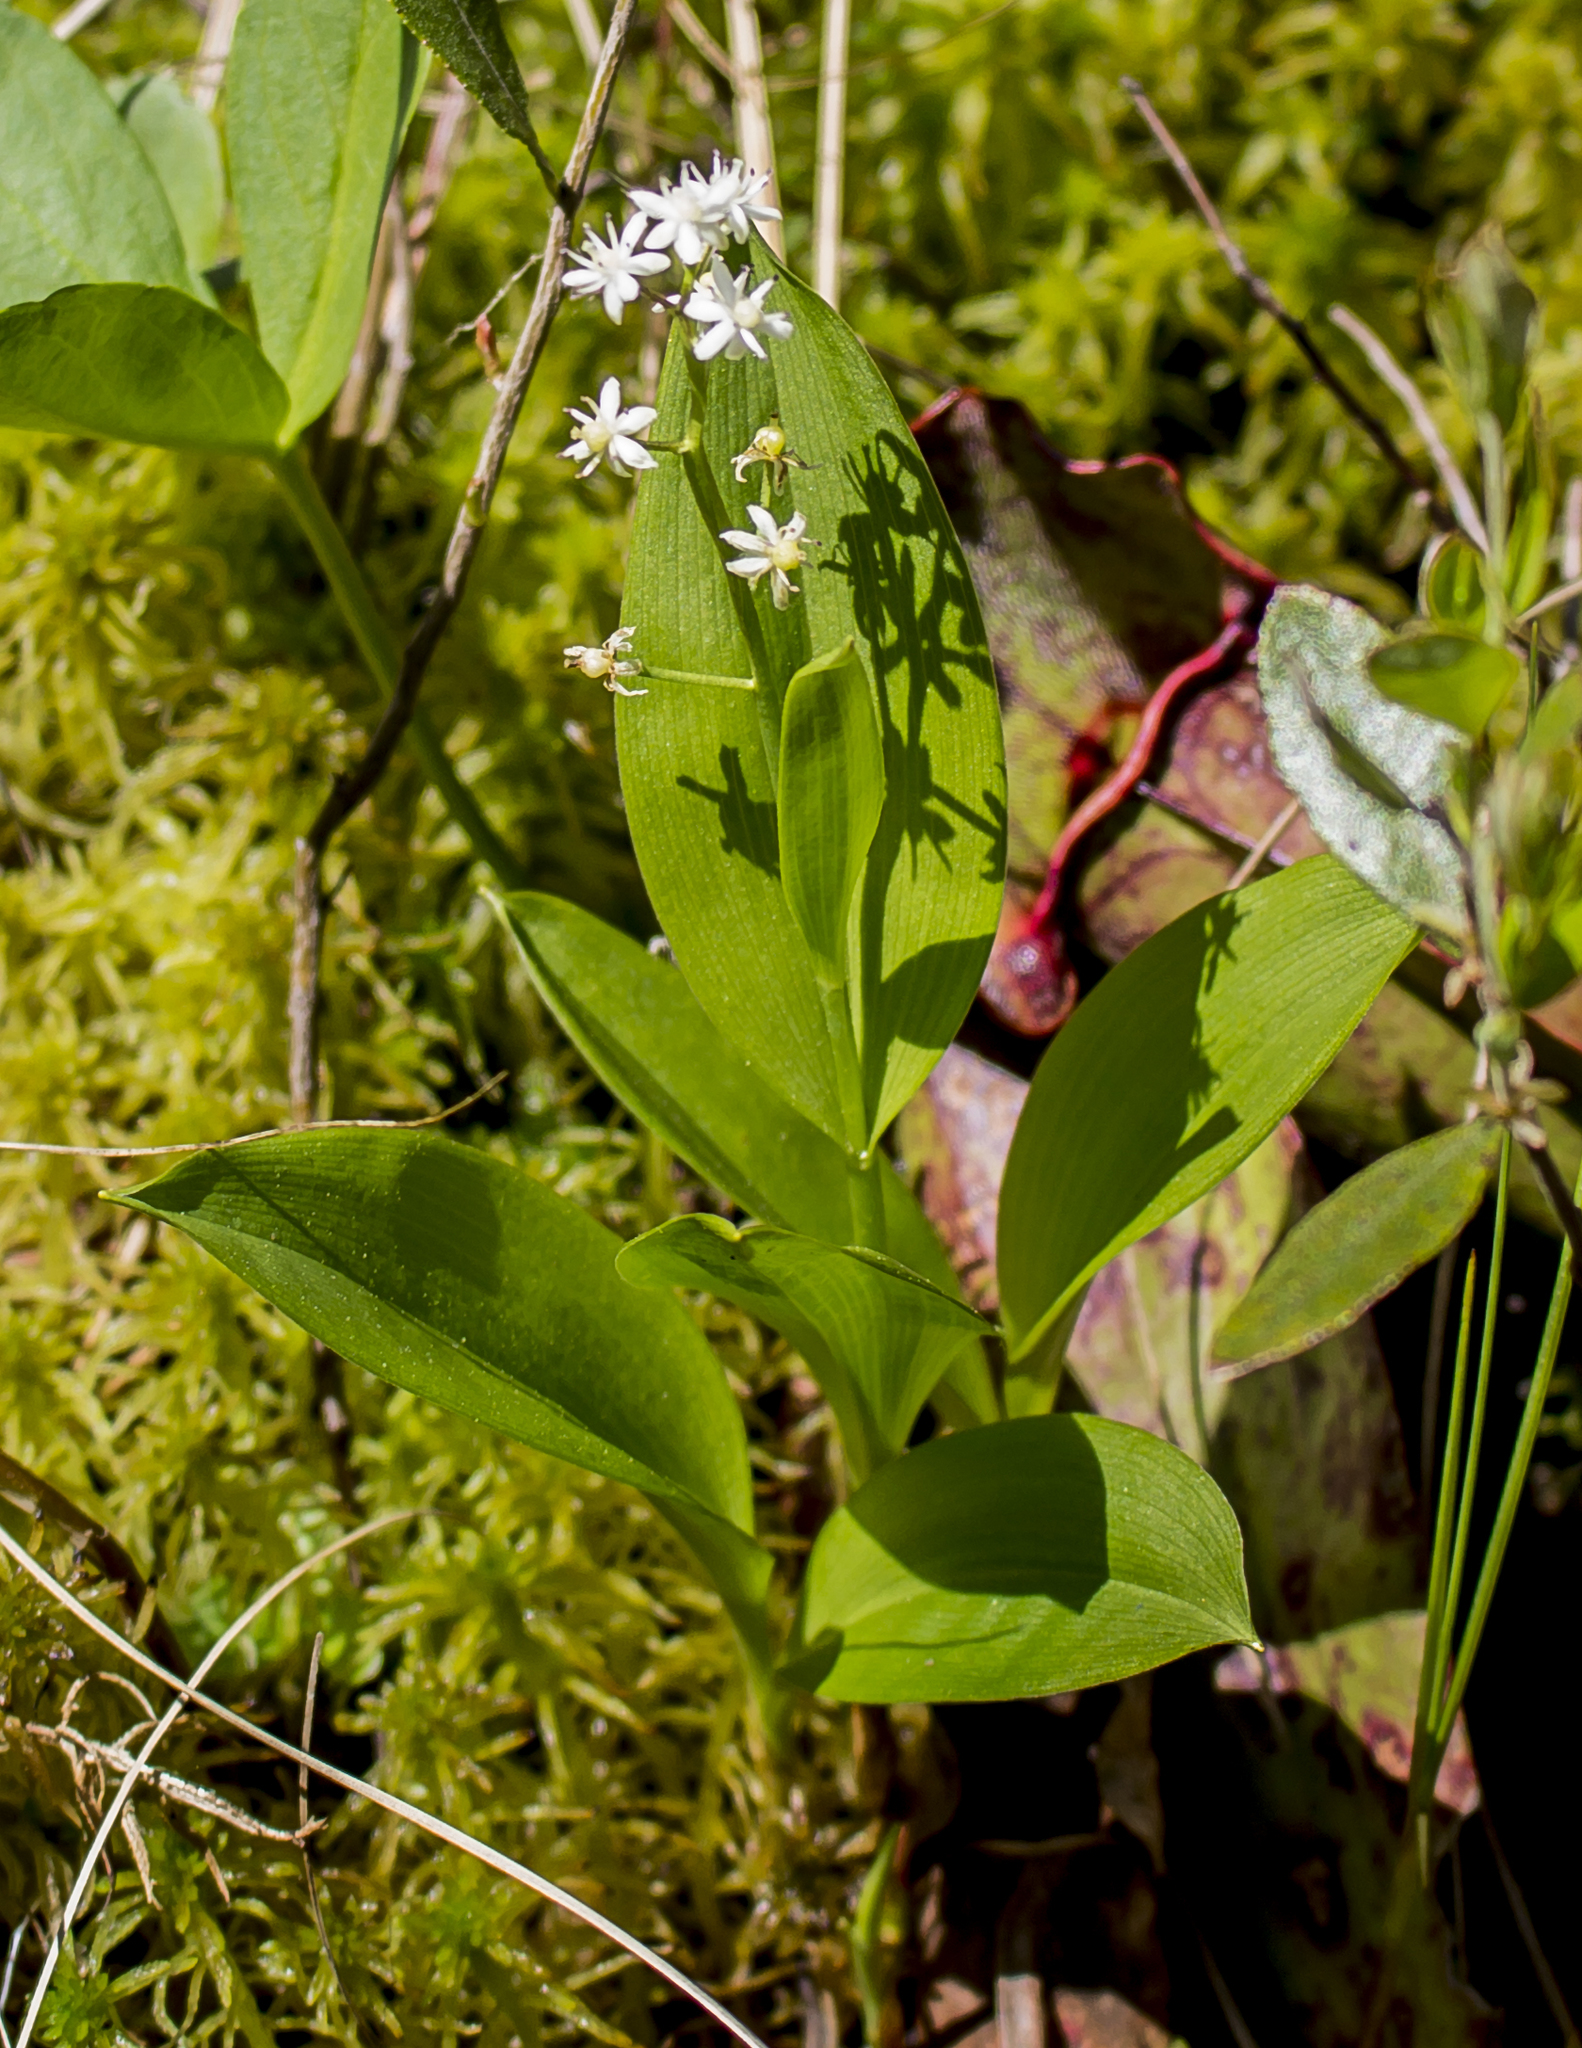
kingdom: Plantae
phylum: Tracheophyta
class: Liliopsida
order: Asparagales
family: Asparagaceae
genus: Maianthemum
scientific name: Maianthemum trifolium
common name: Swamp false solomon's seal
